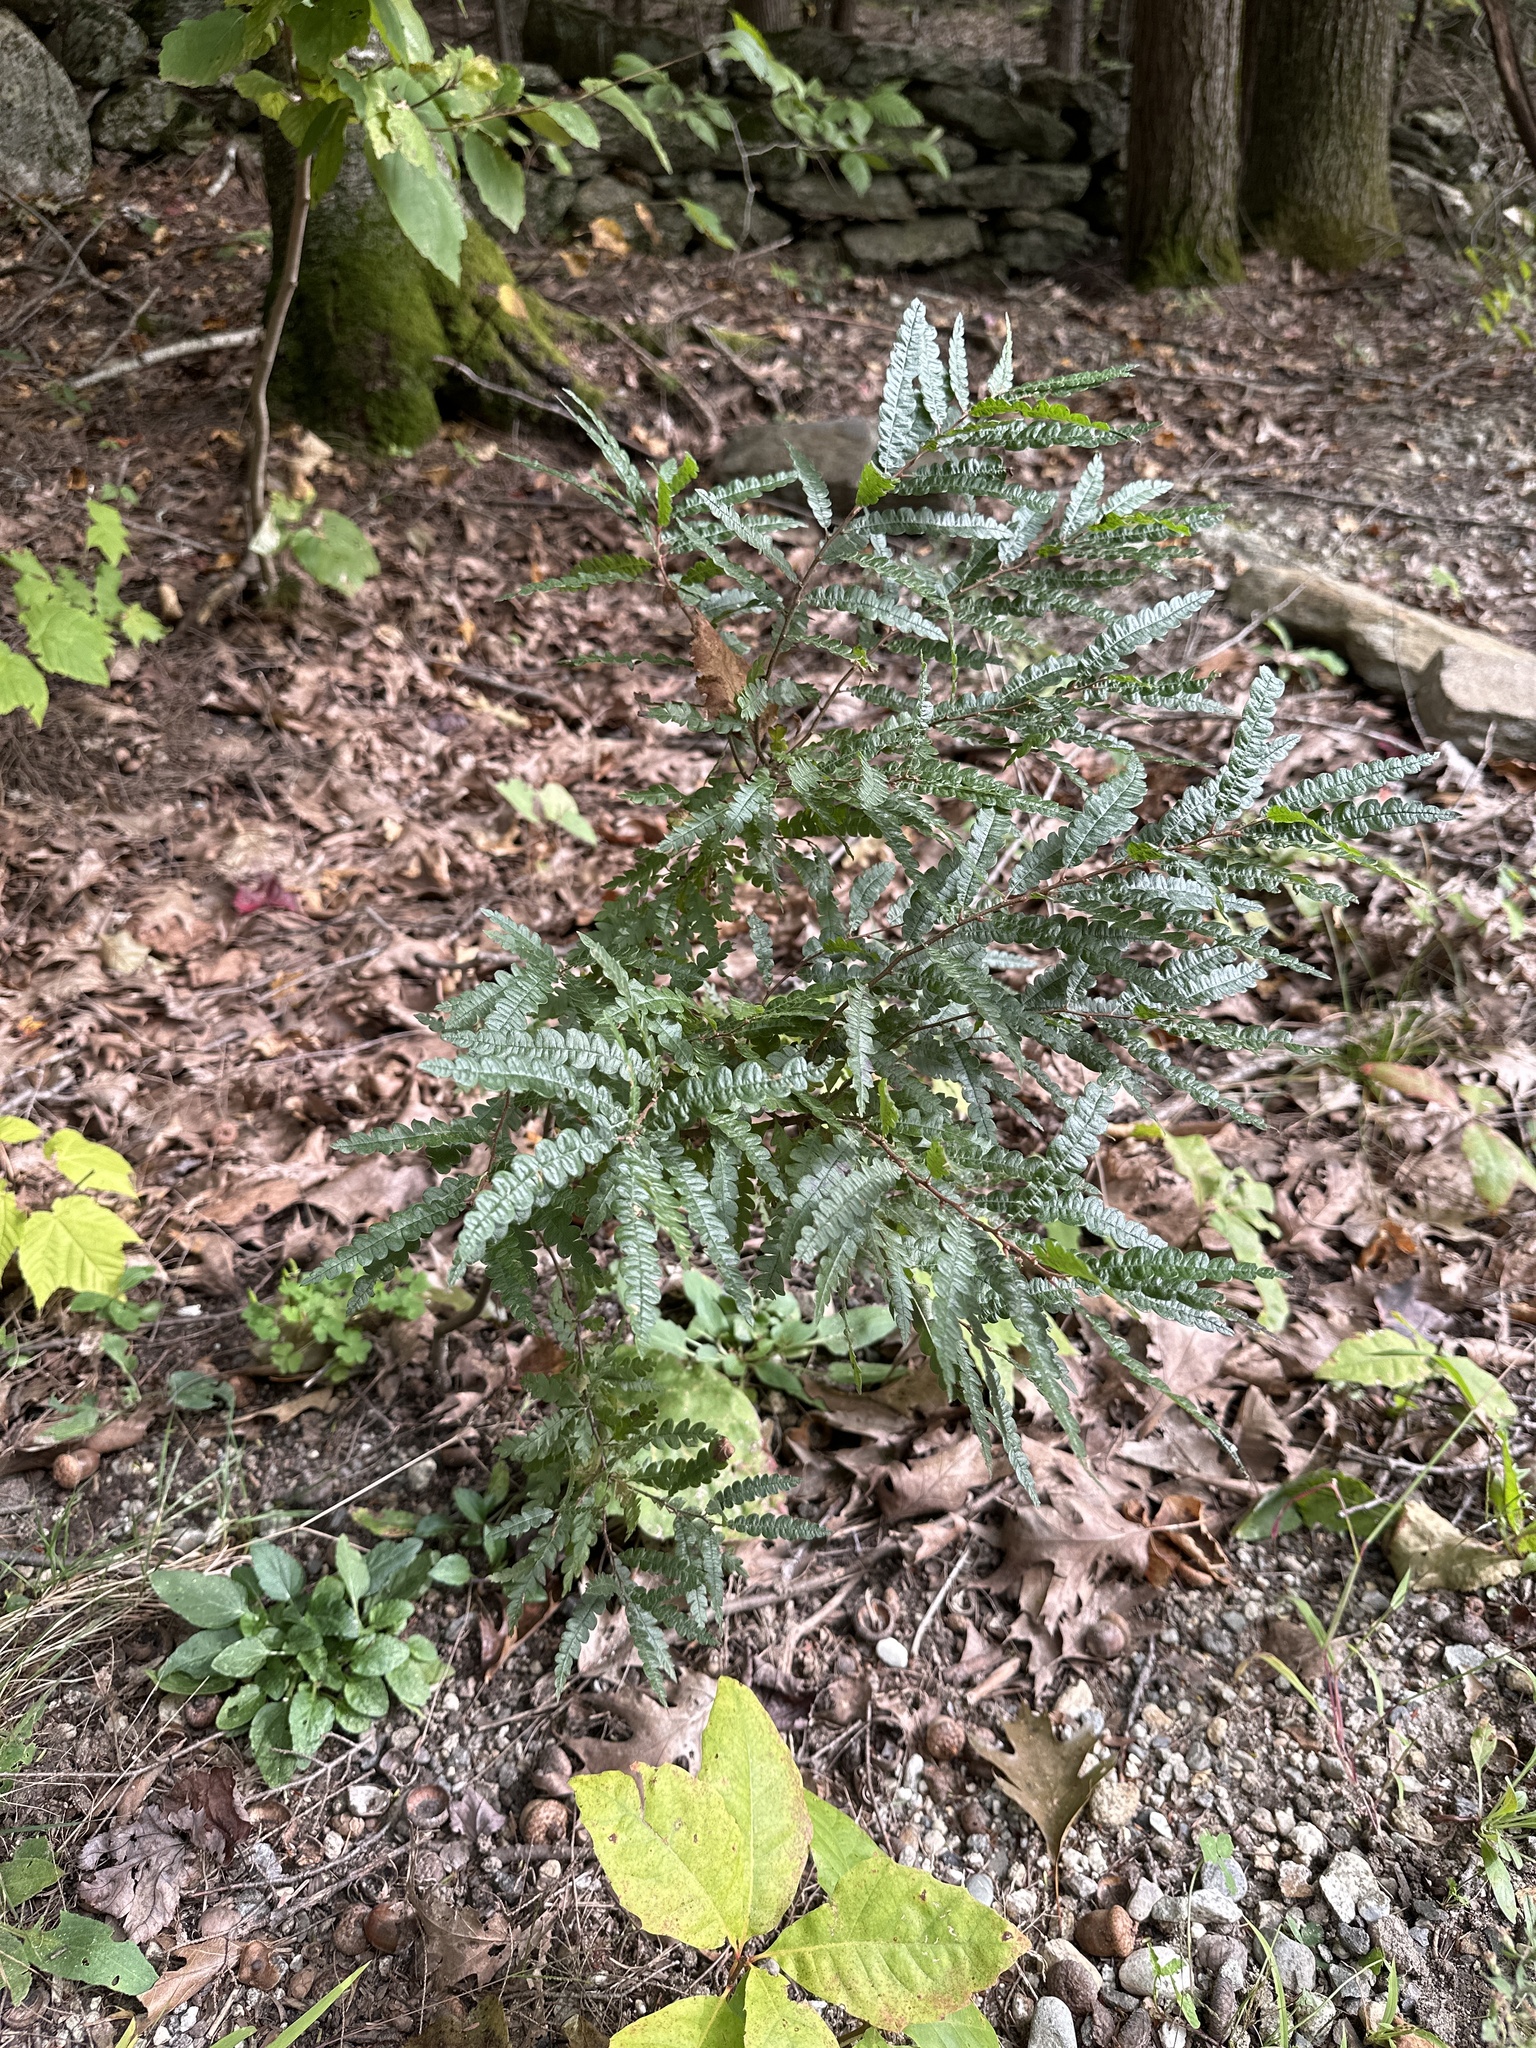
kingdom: Plantae
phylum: Tracheophyta
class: Magnoliopsida
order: Fagales
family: Myricaceae
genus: Comptonia
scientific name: Comptonia peregrina
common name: Sweet-fern
